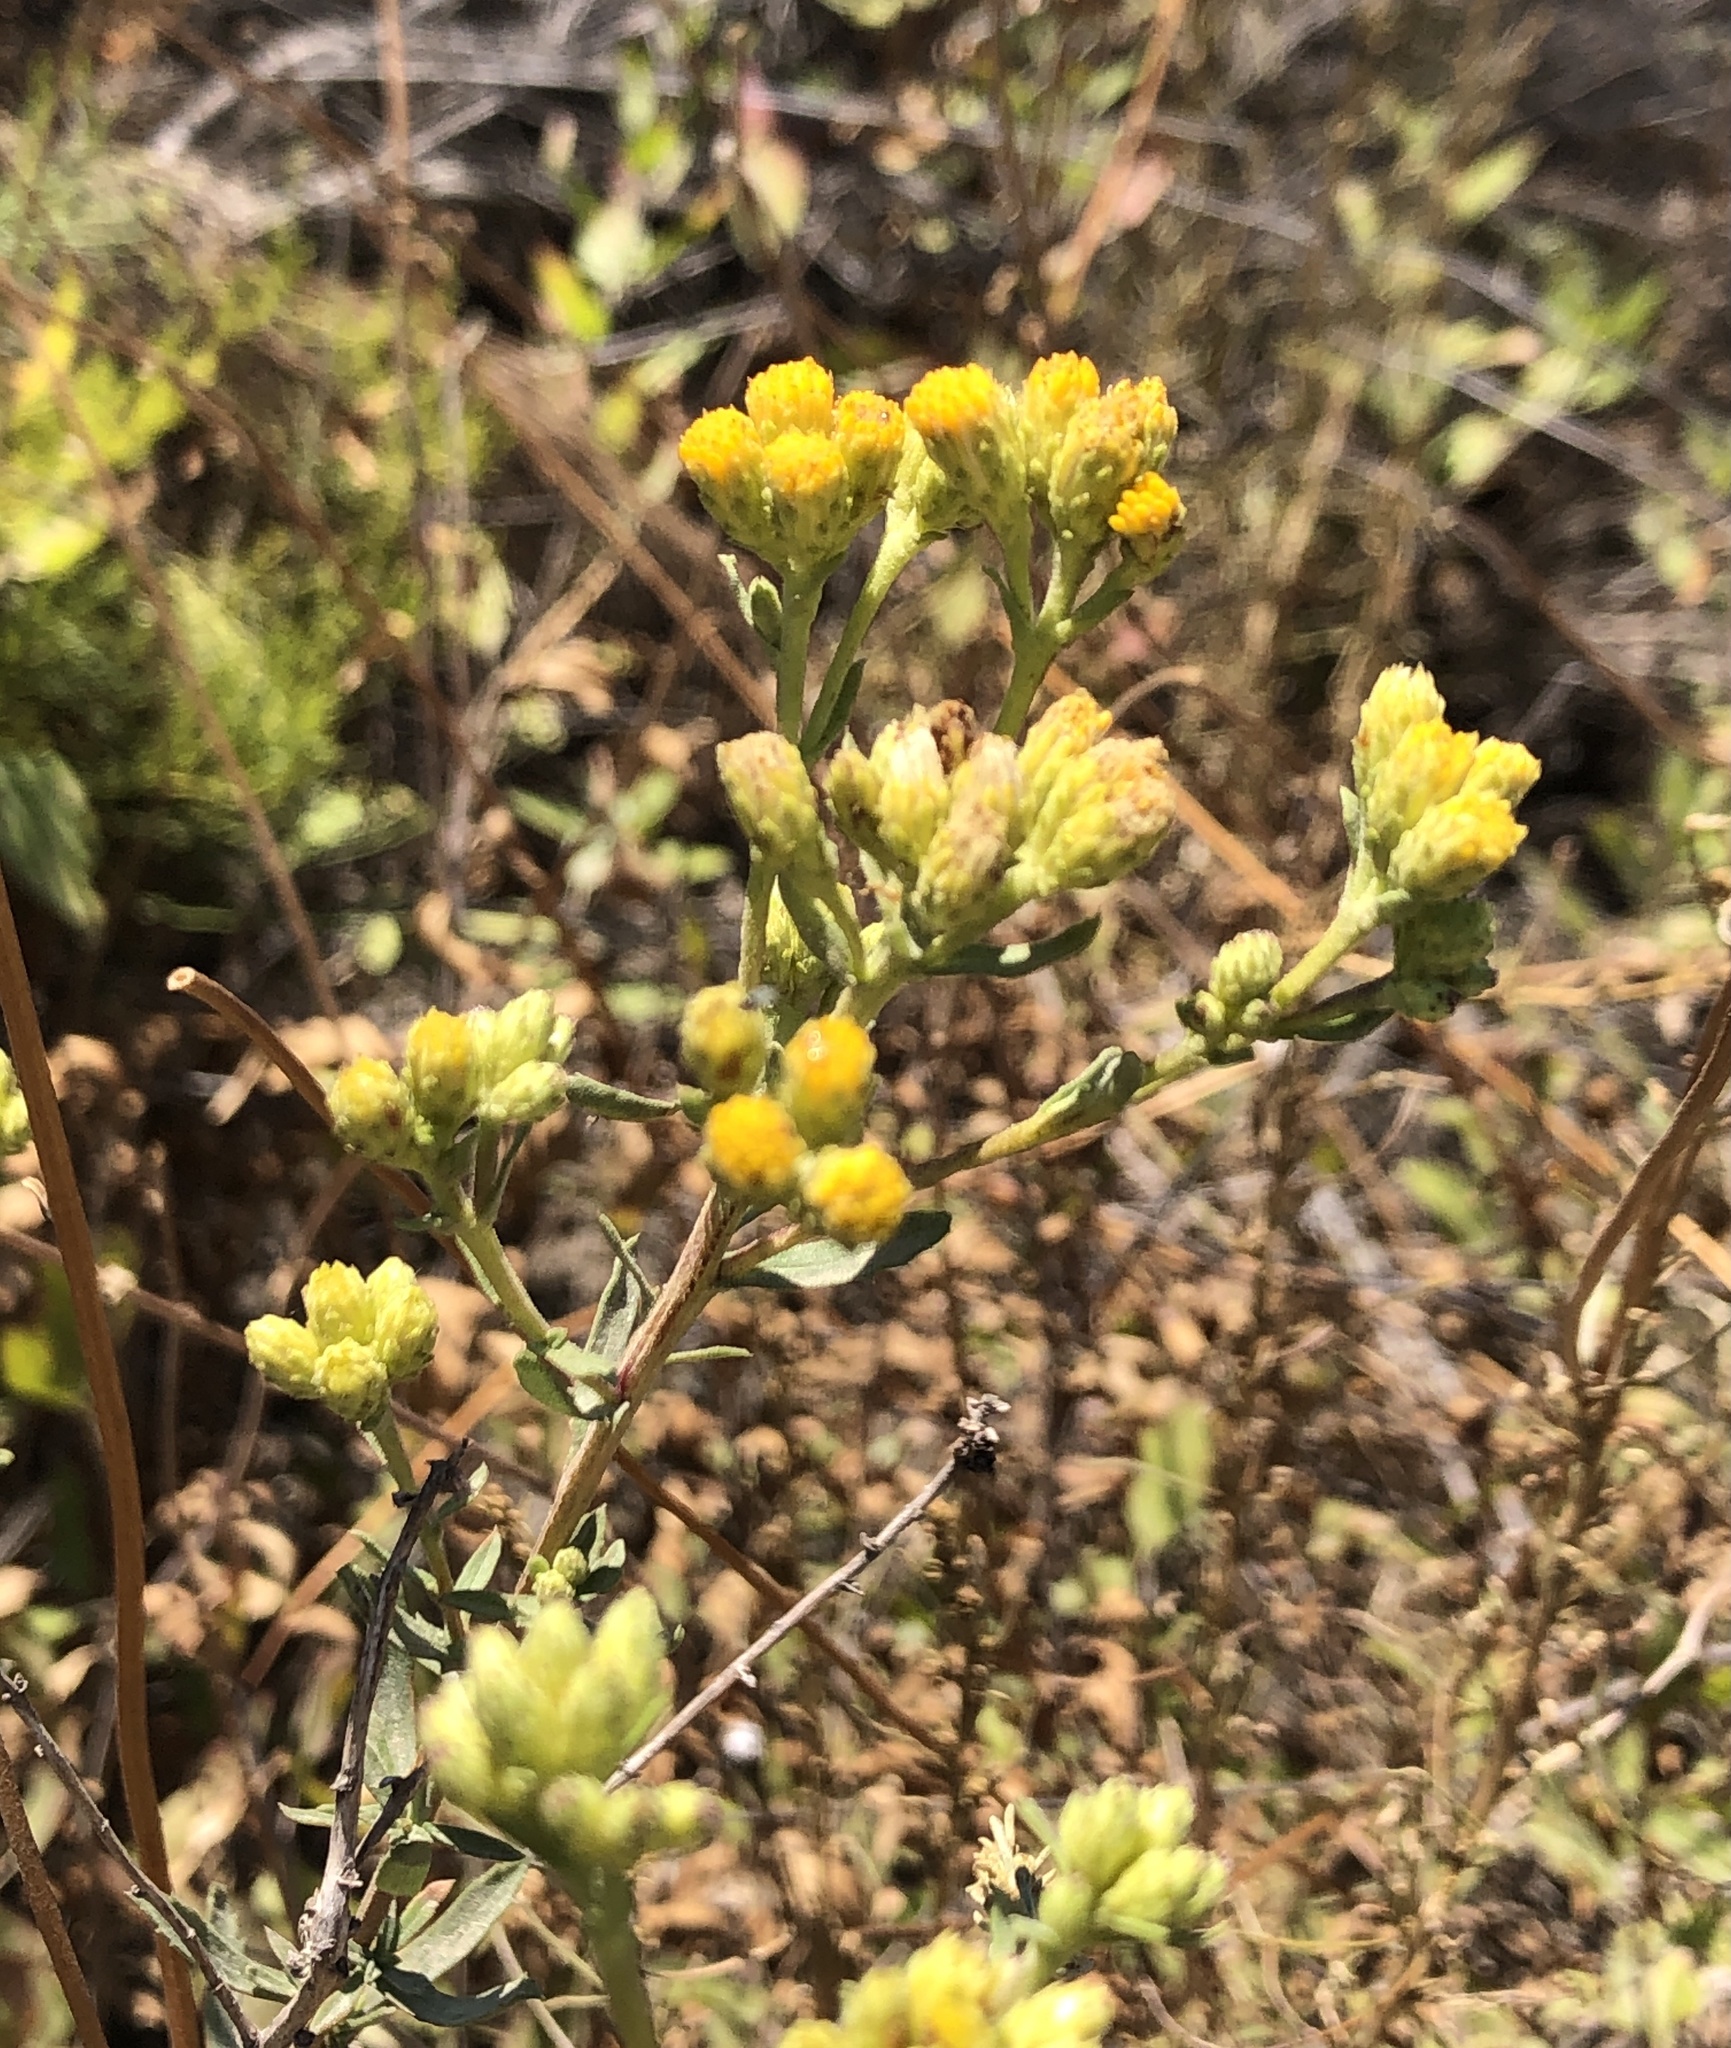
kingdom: Plantae
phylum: Tracheophyta
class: Magnoliopsida
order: Asterales
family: Asteraceae
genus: Isocoma
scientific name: Isocoma menziesii
